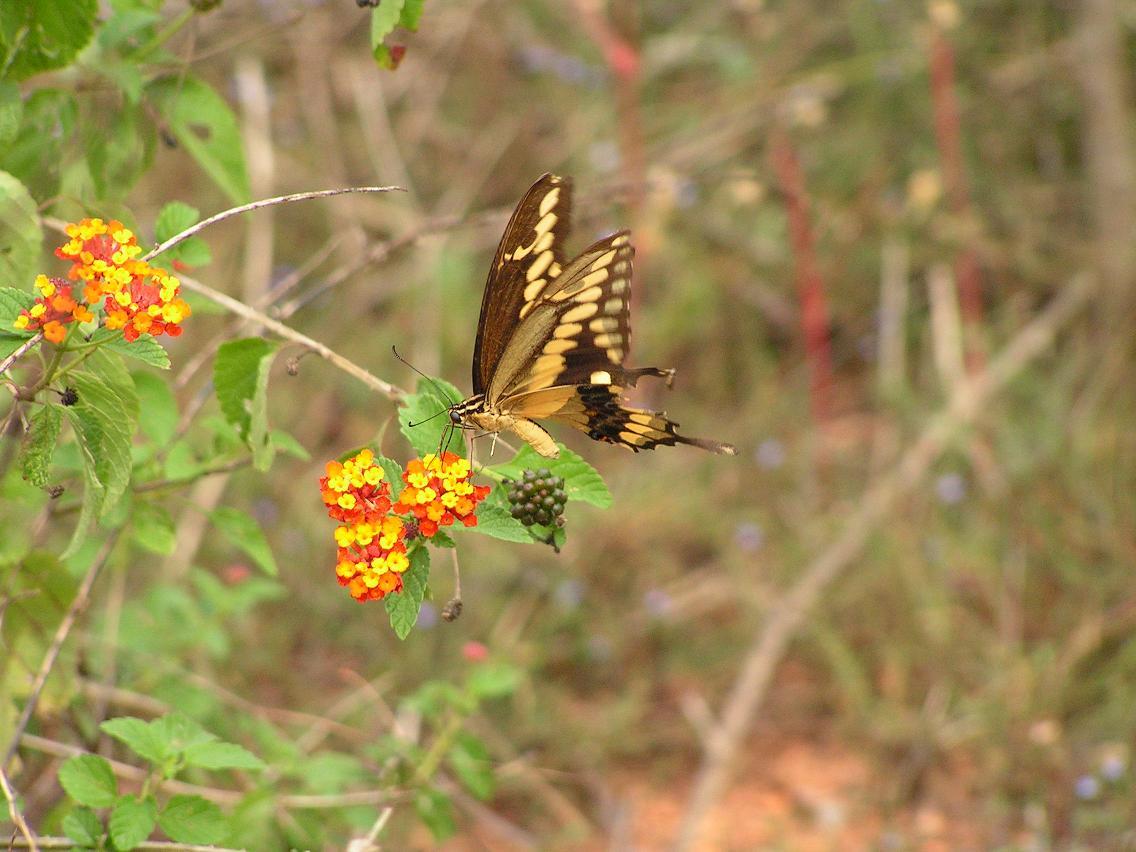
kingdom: Animalia
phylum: Arthropoda
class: Insecta
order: Lepidoptera
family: Papilionidae
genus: Papilio
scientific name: Papilio rumiko
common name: Western giant swallowtail
